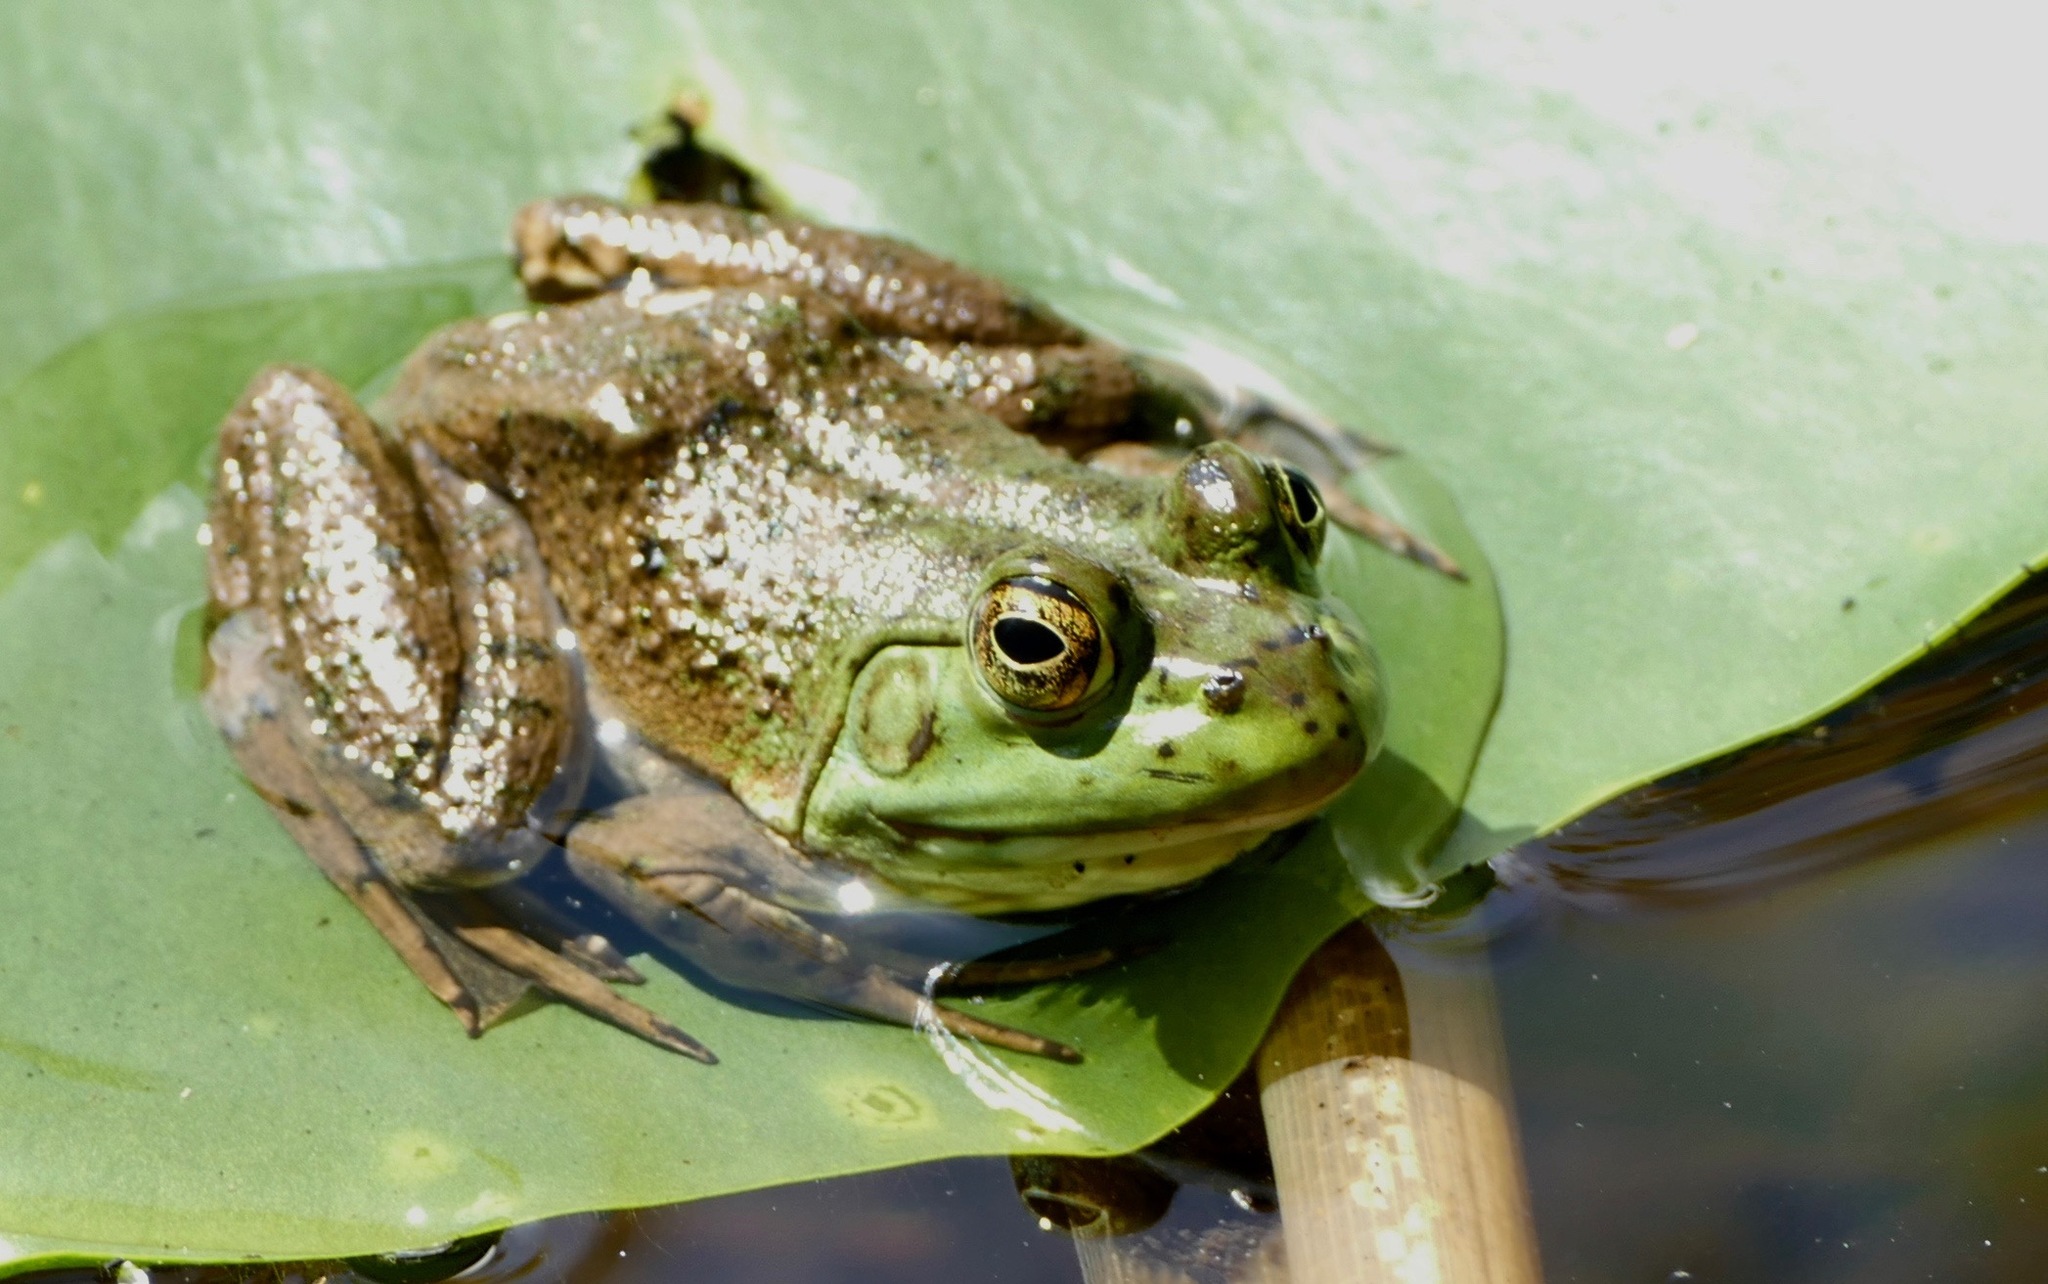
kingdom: Animalia
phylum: Chordata
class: Amphibia
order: Anura
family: Ranidae
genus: Lithobates
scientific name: Lithobates catesbeianus
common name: American bullfrog
